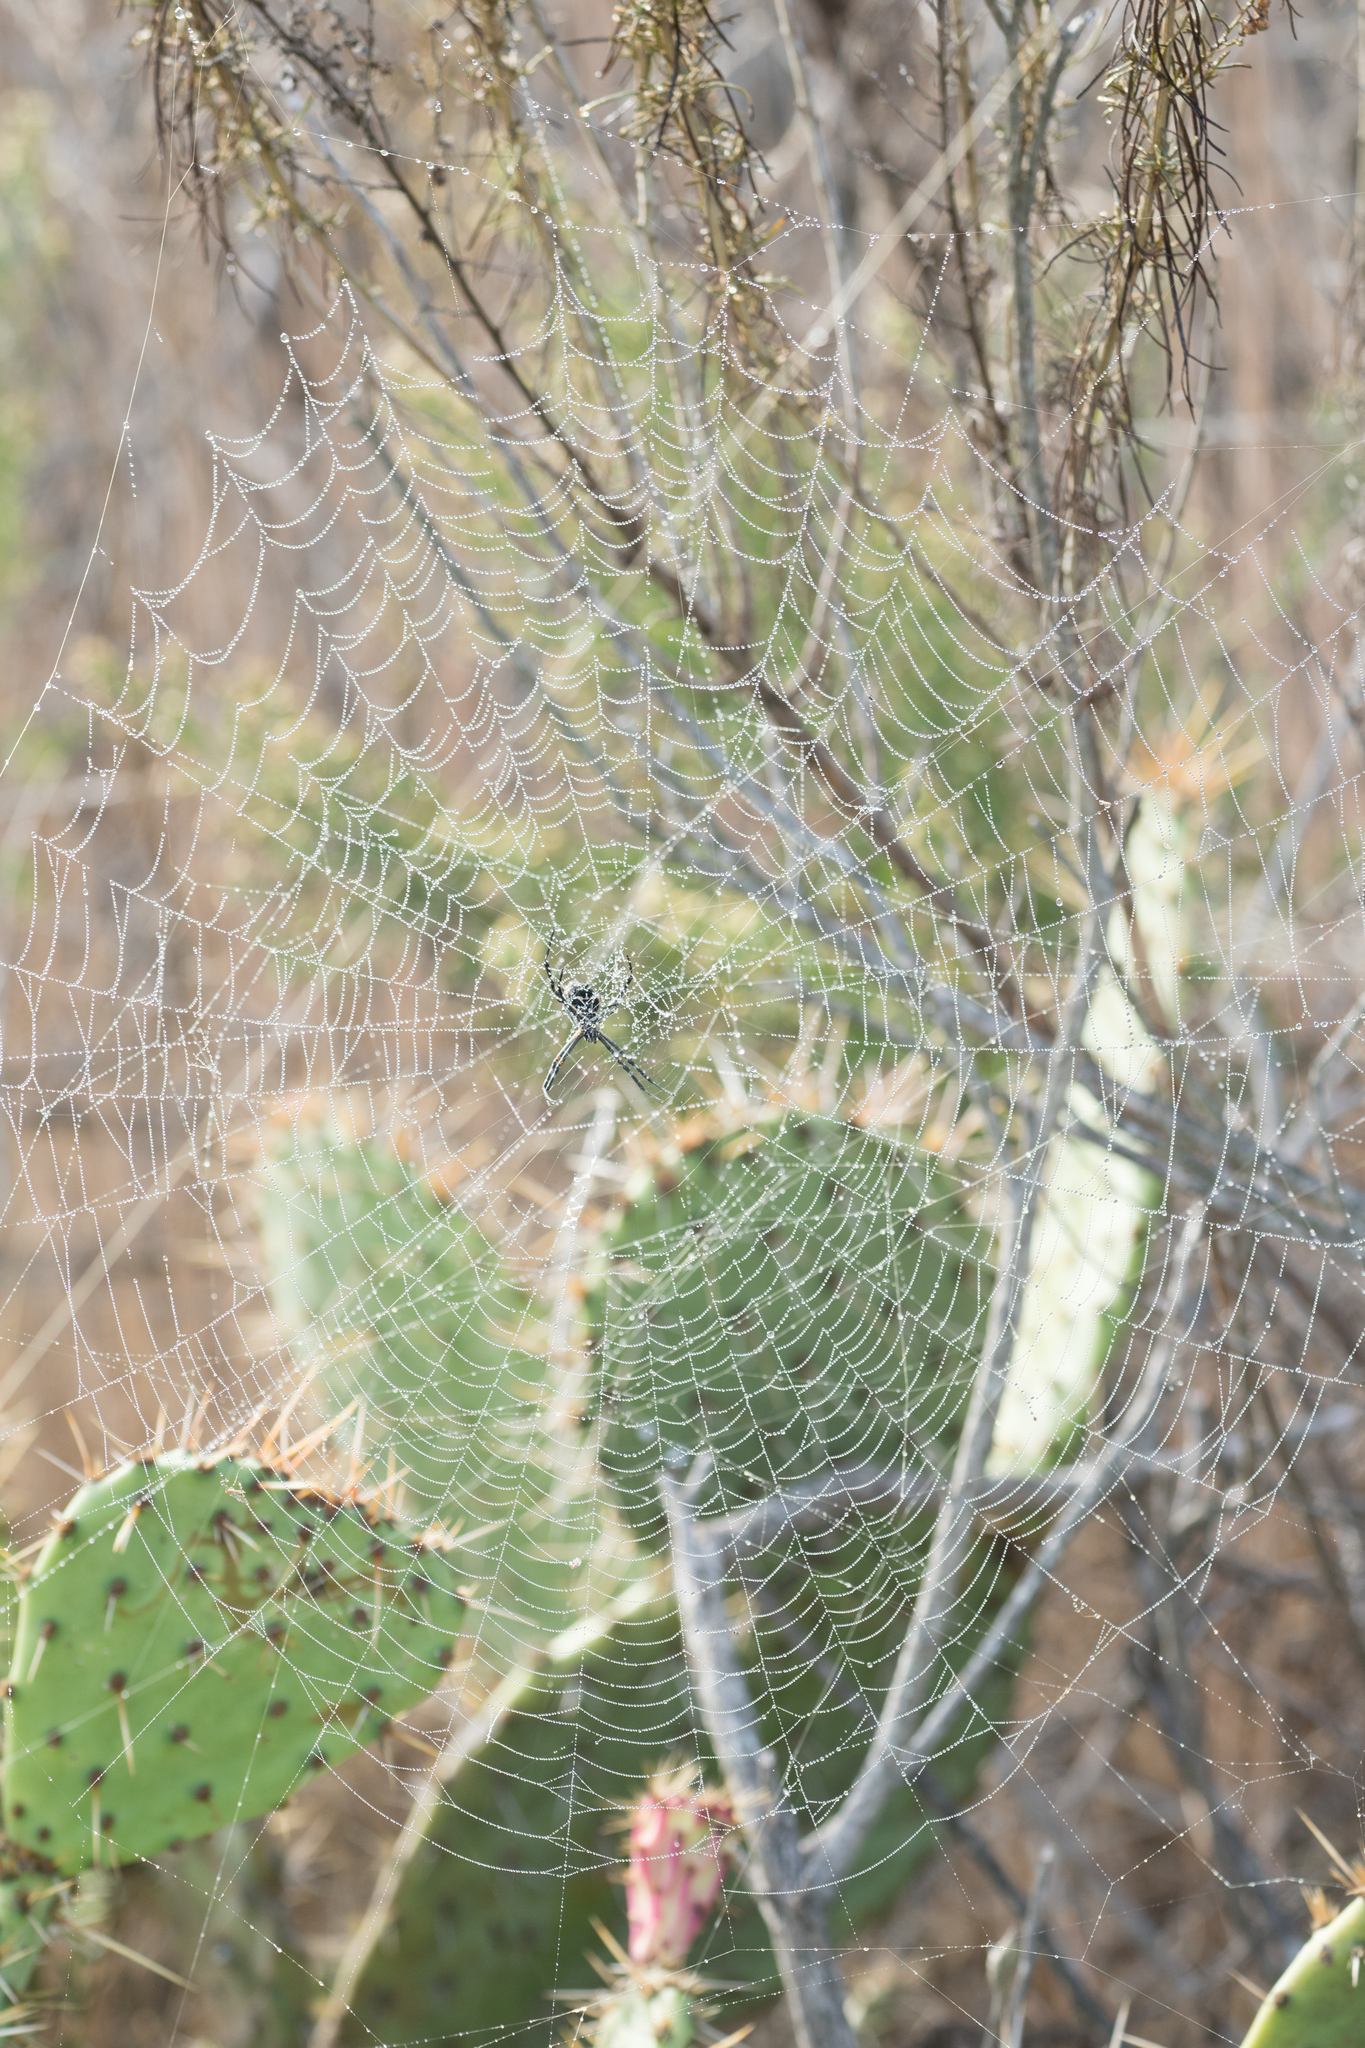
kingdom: Animalia
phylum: Arthropoda
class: Arachnida
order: Araneae
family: Araneidae
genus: Argiope
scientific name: Argiope argentata
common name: Orb weavers
